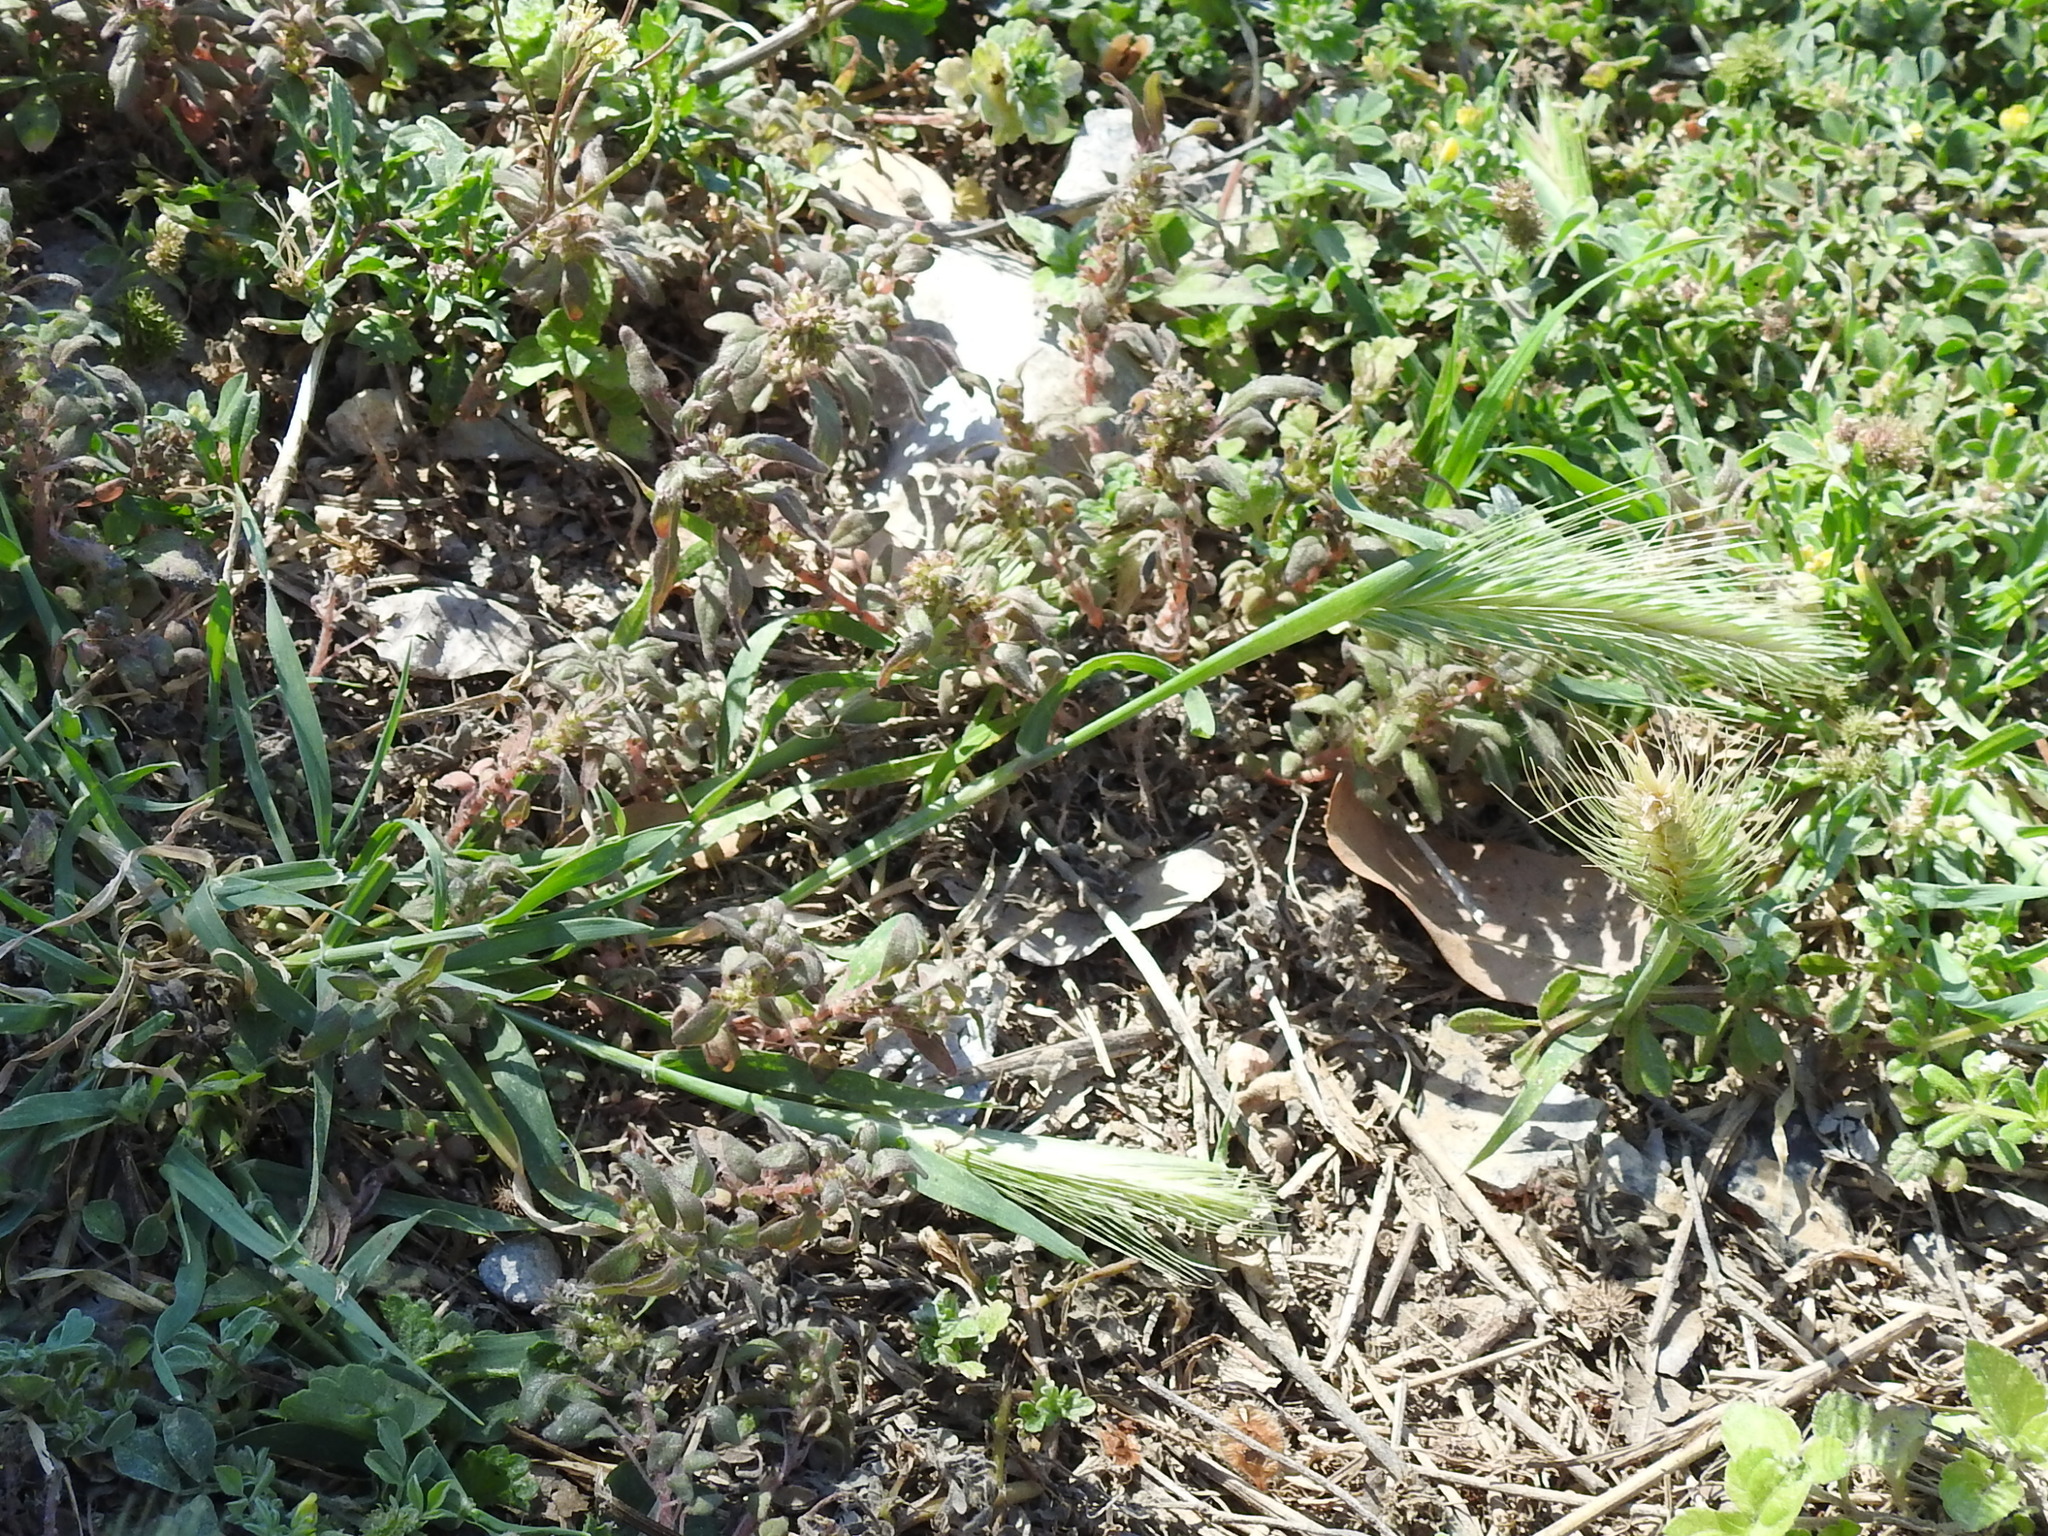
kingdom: Plantae
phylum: Tracheophyta
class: Liliopsida
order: Poales
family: Poaceae
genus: Hordeum
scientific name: Hordeum pusillum
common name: Little barley
